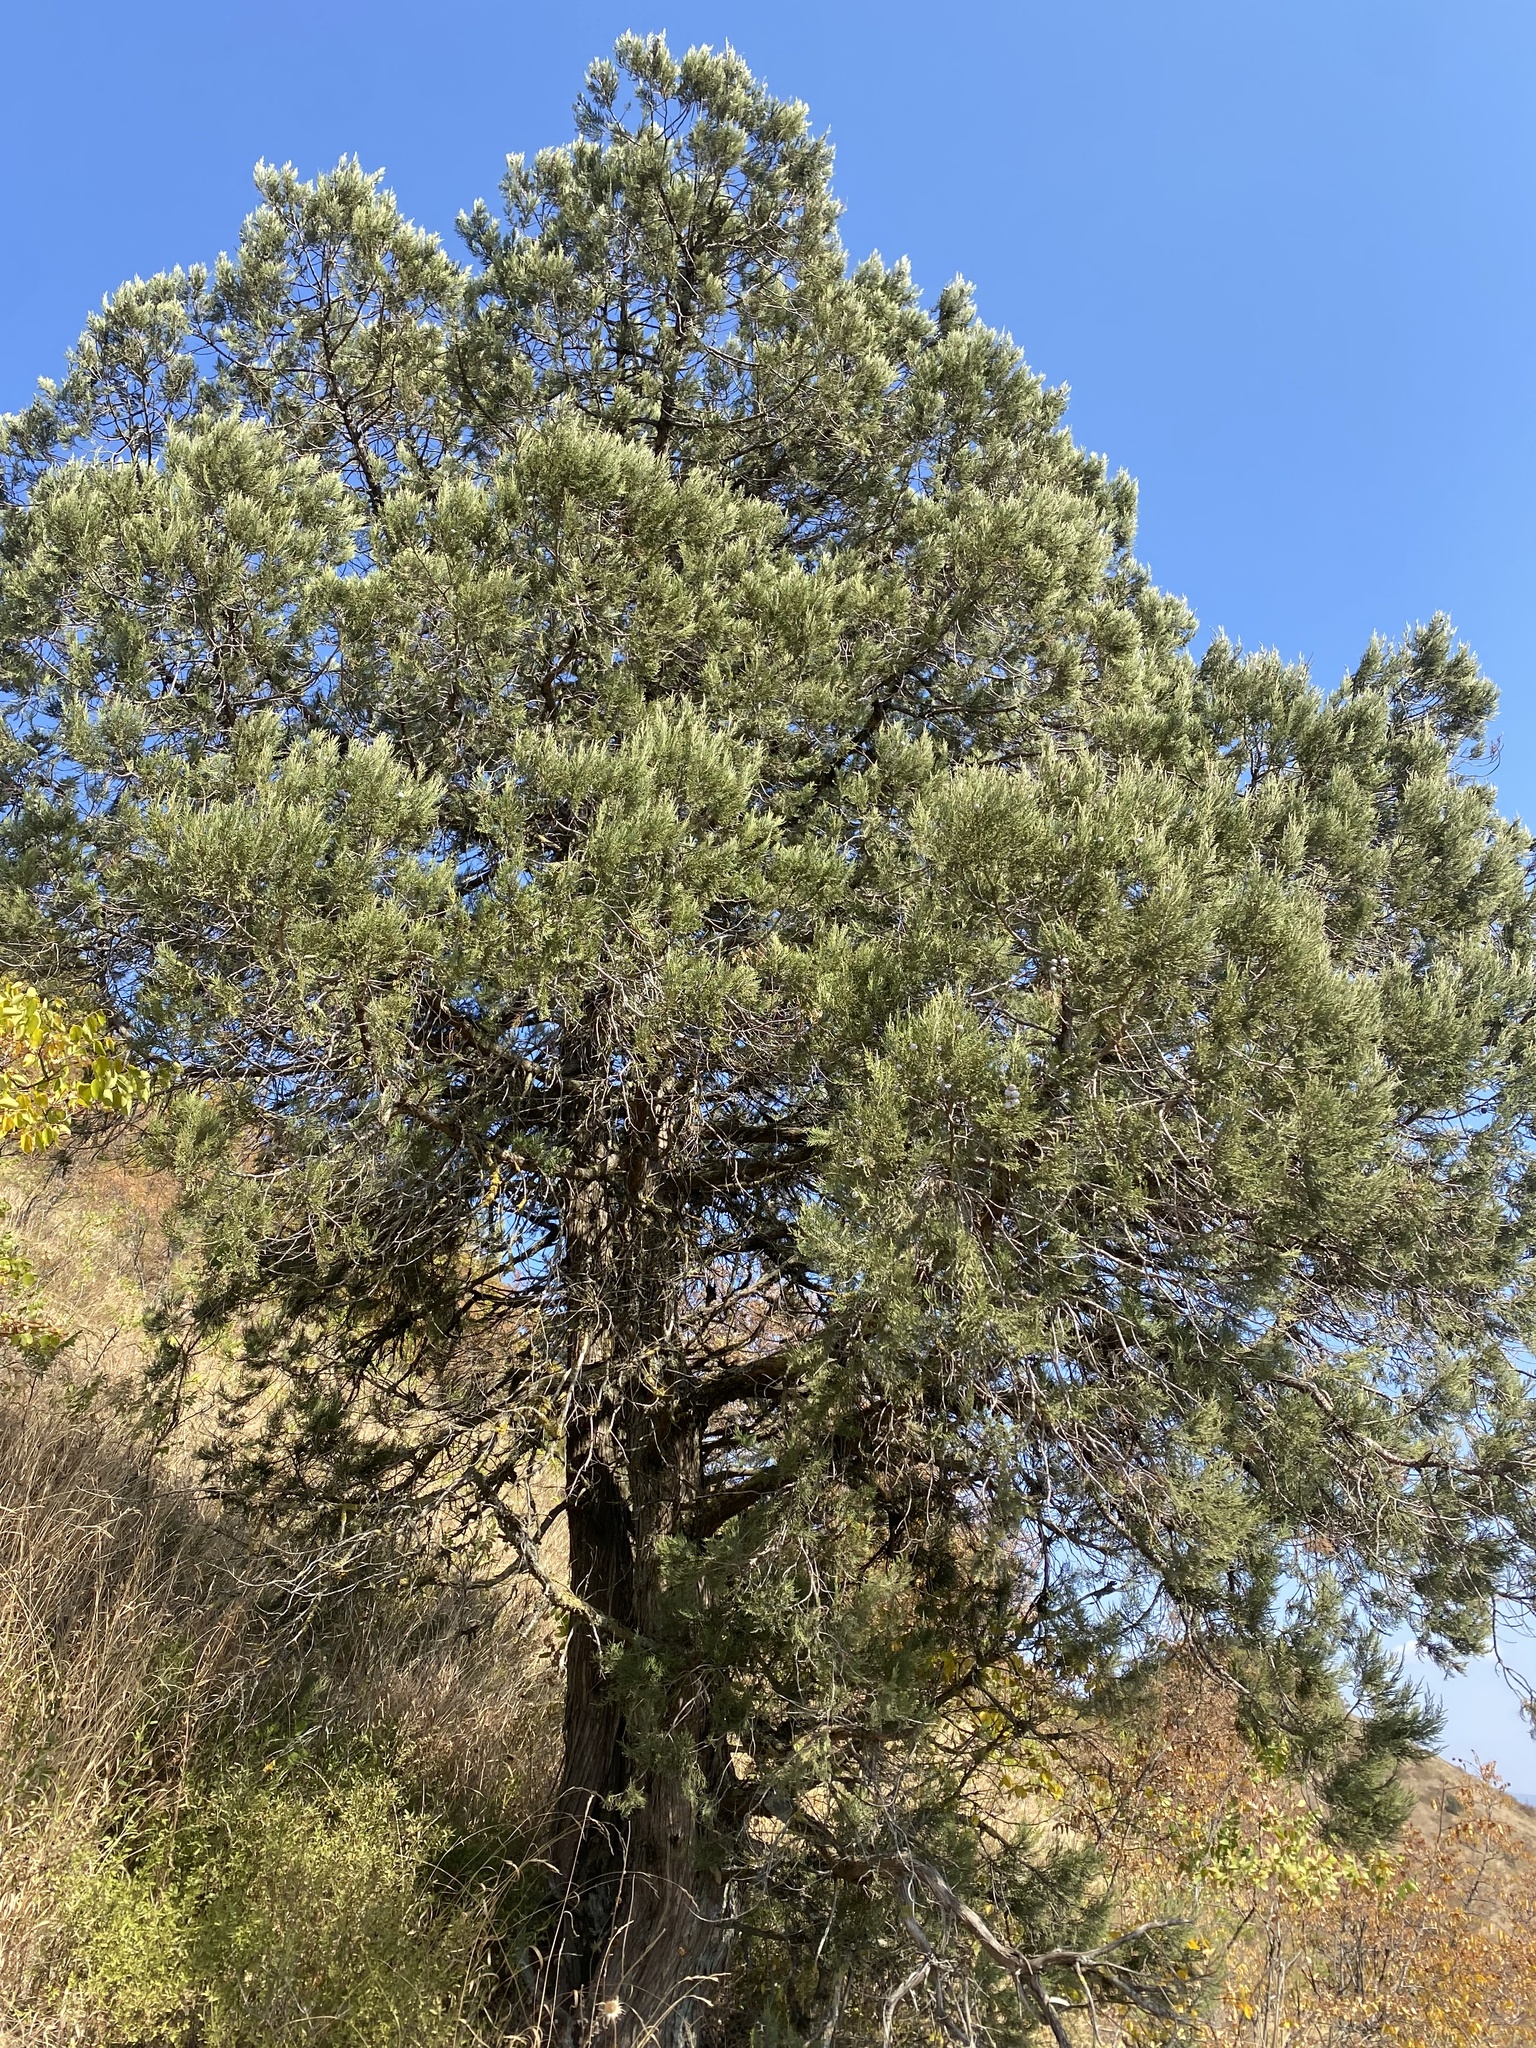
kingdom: Plantae
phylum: Tracheophyta
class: Pinopsida
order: Pinales
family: Cupressaceae
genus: Juniperus
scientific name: Juniperus excelsa
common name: Crimean juniper
